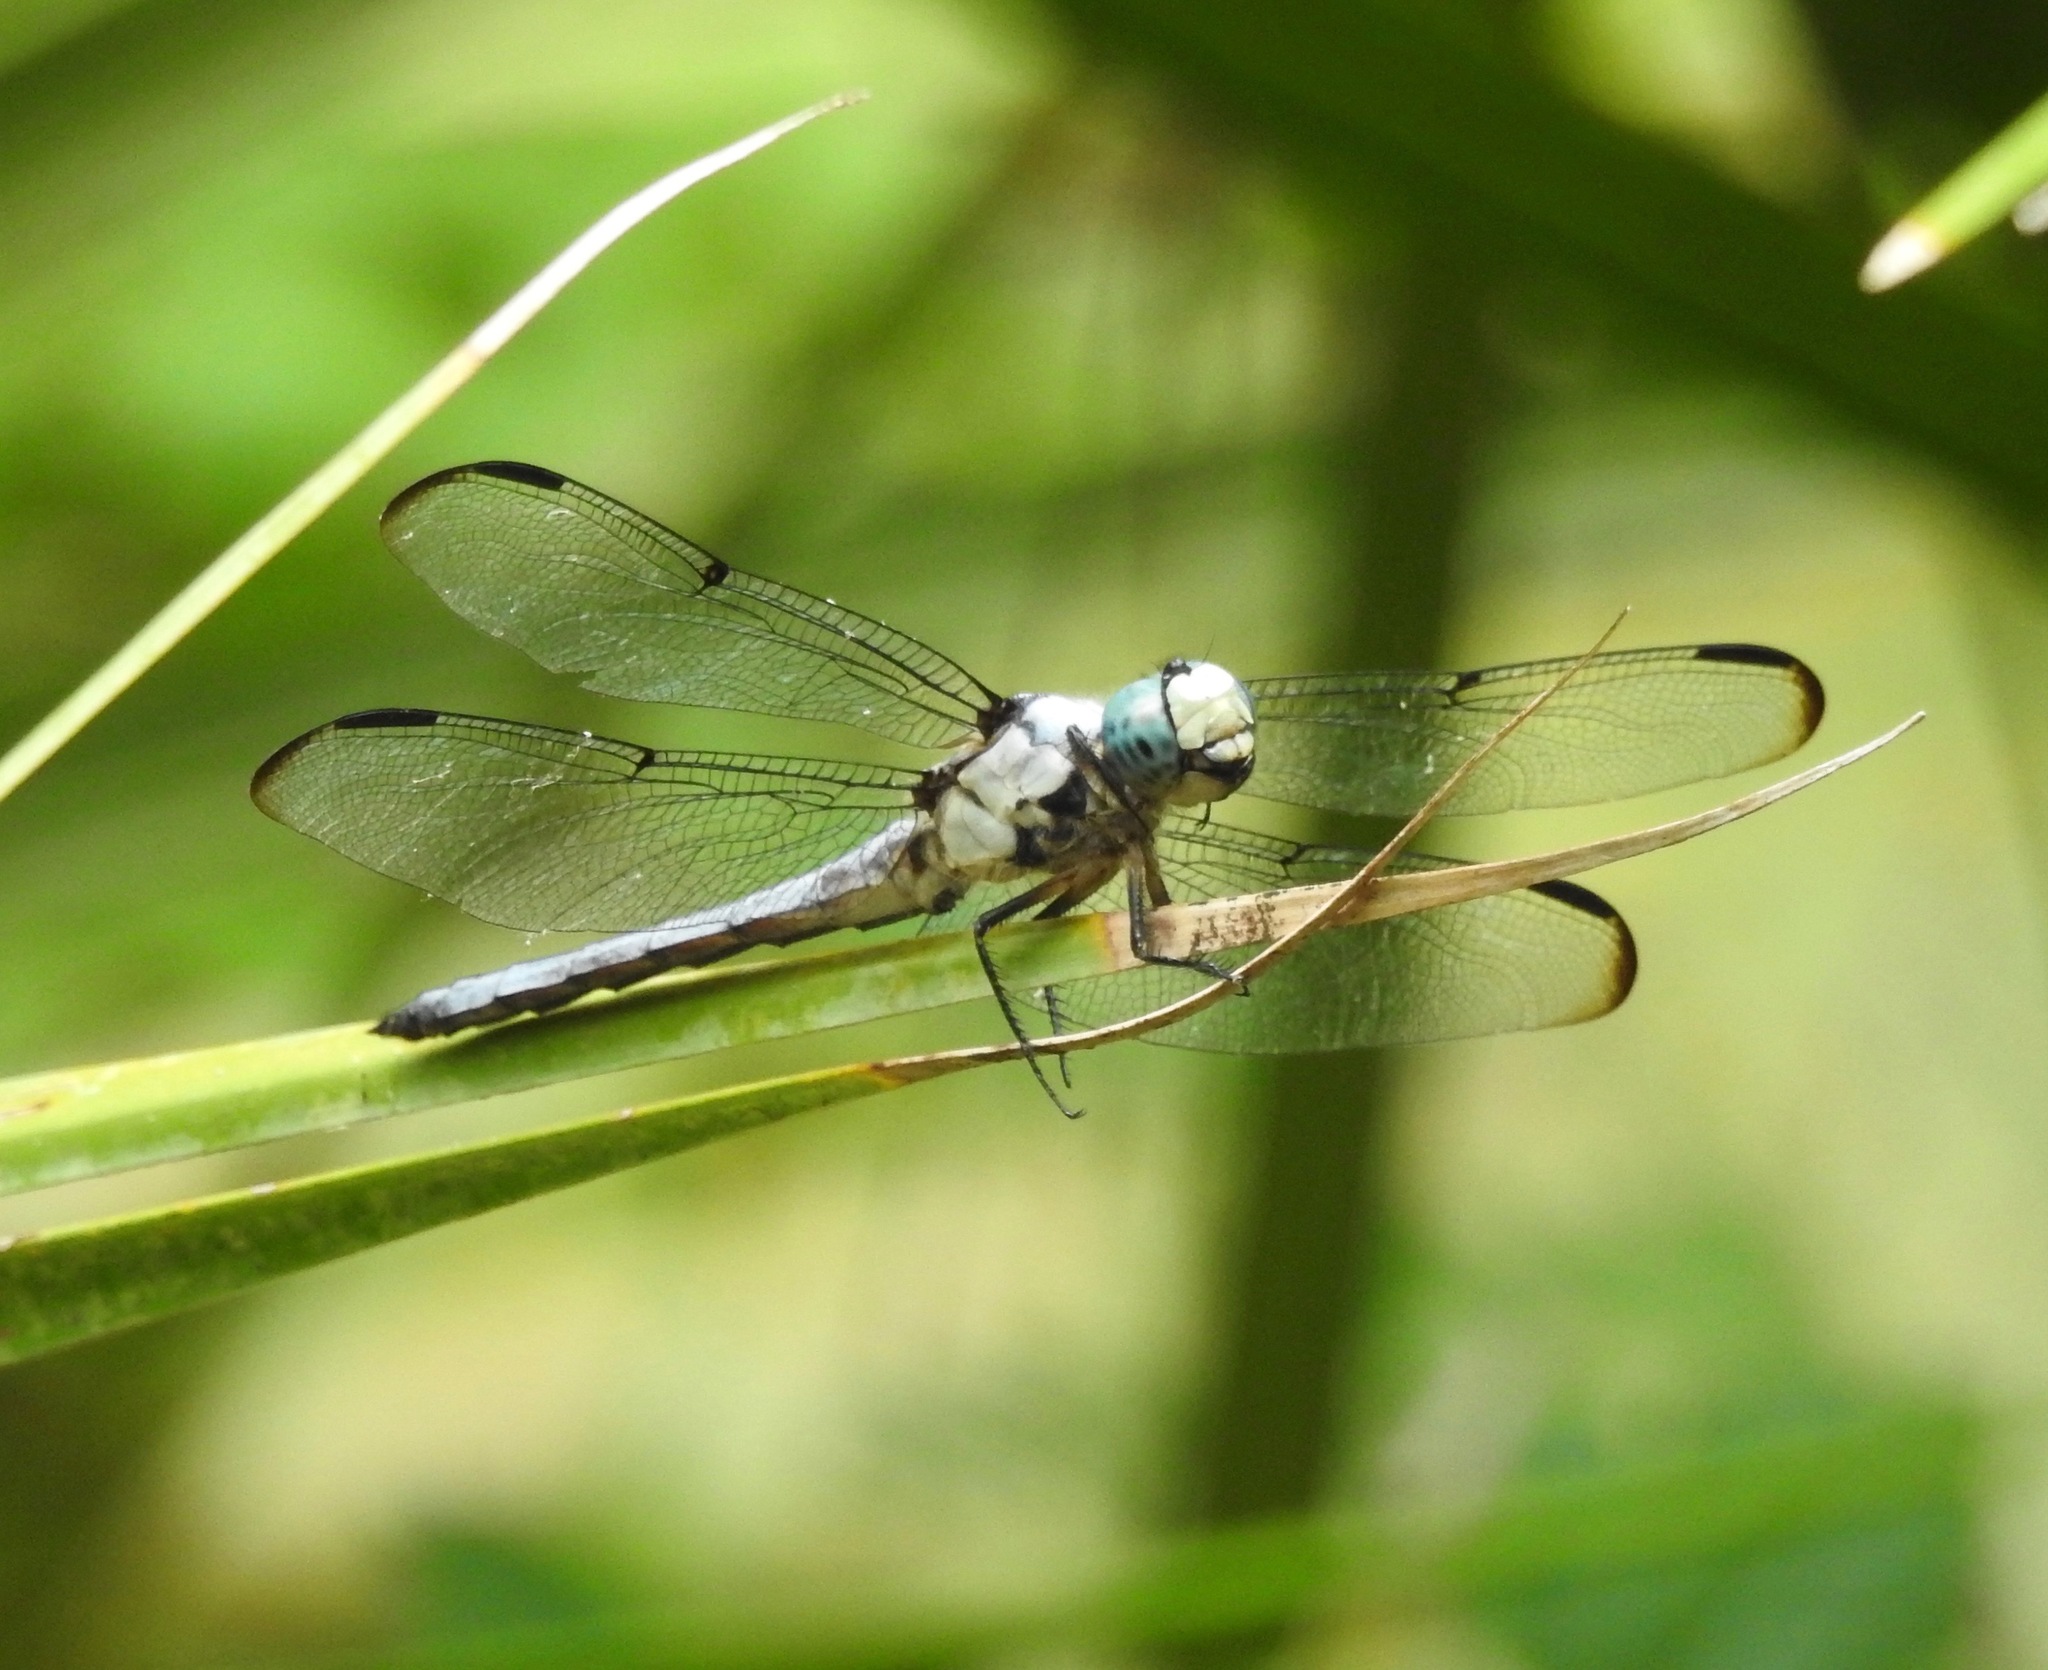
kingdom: Animalia
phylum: Arthropoda
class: Insecta
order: Odonata
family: Libellulidae
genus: Libellula
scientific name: Libellula vibrans
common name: Great blue skimmer
